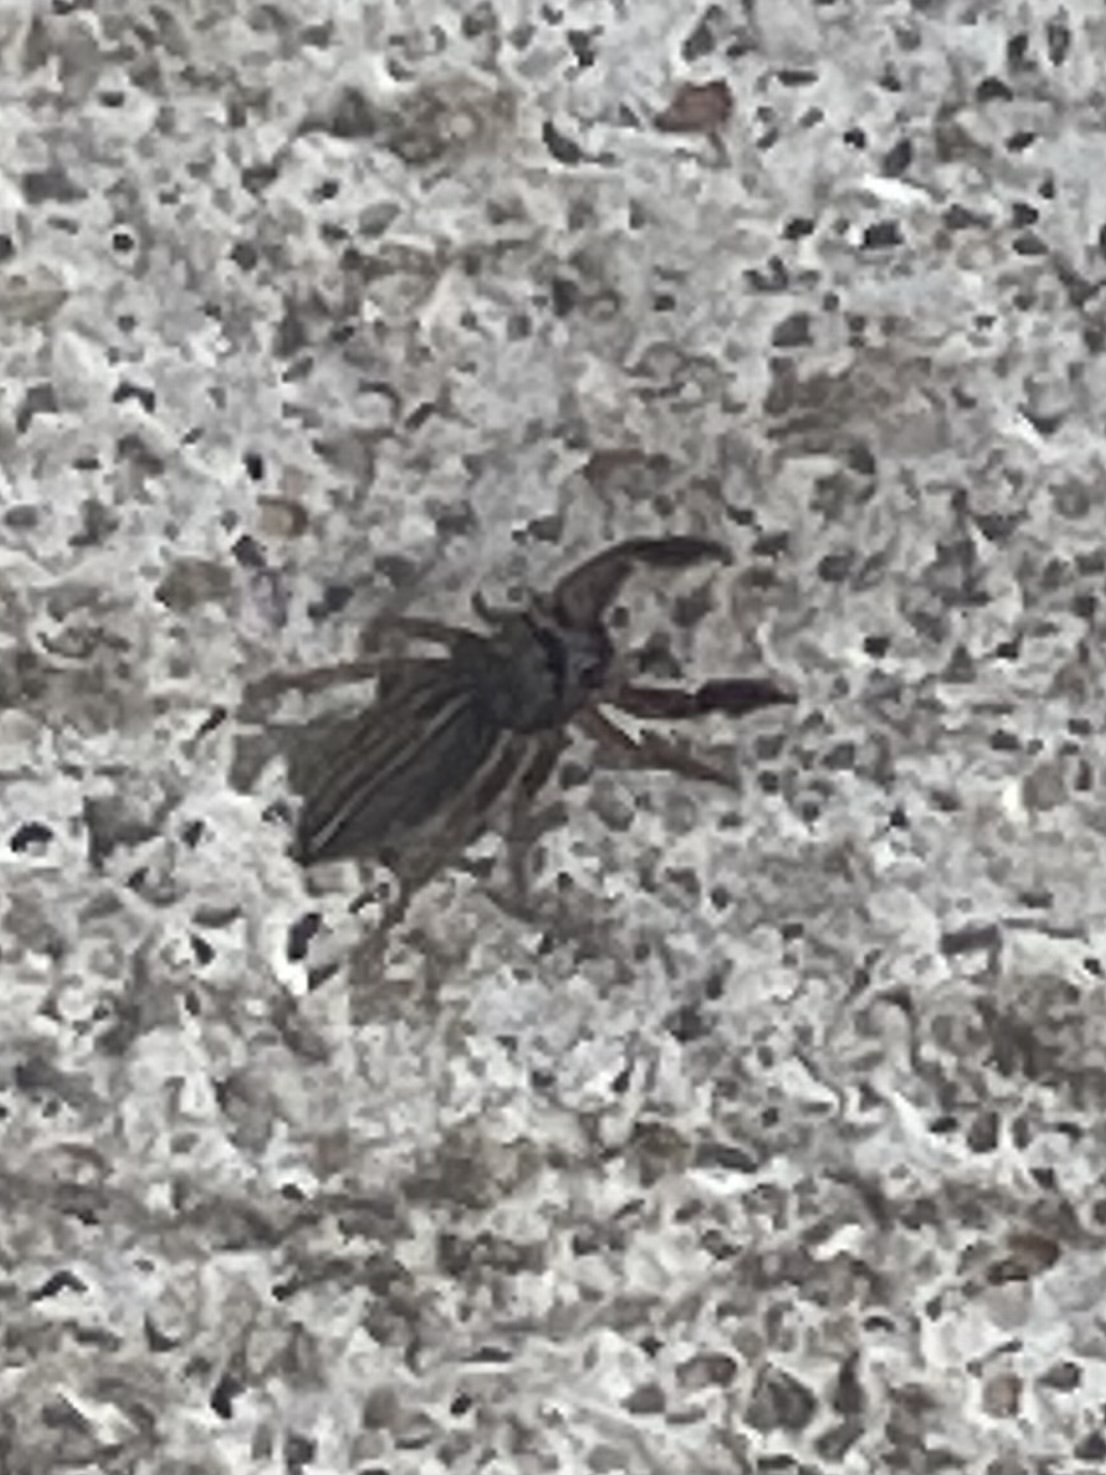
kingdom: Animalia
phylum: Arthropoda
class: Arachnida
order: Araneae
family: Salticidae
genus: Marpissa
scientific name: Marpissa lineata
